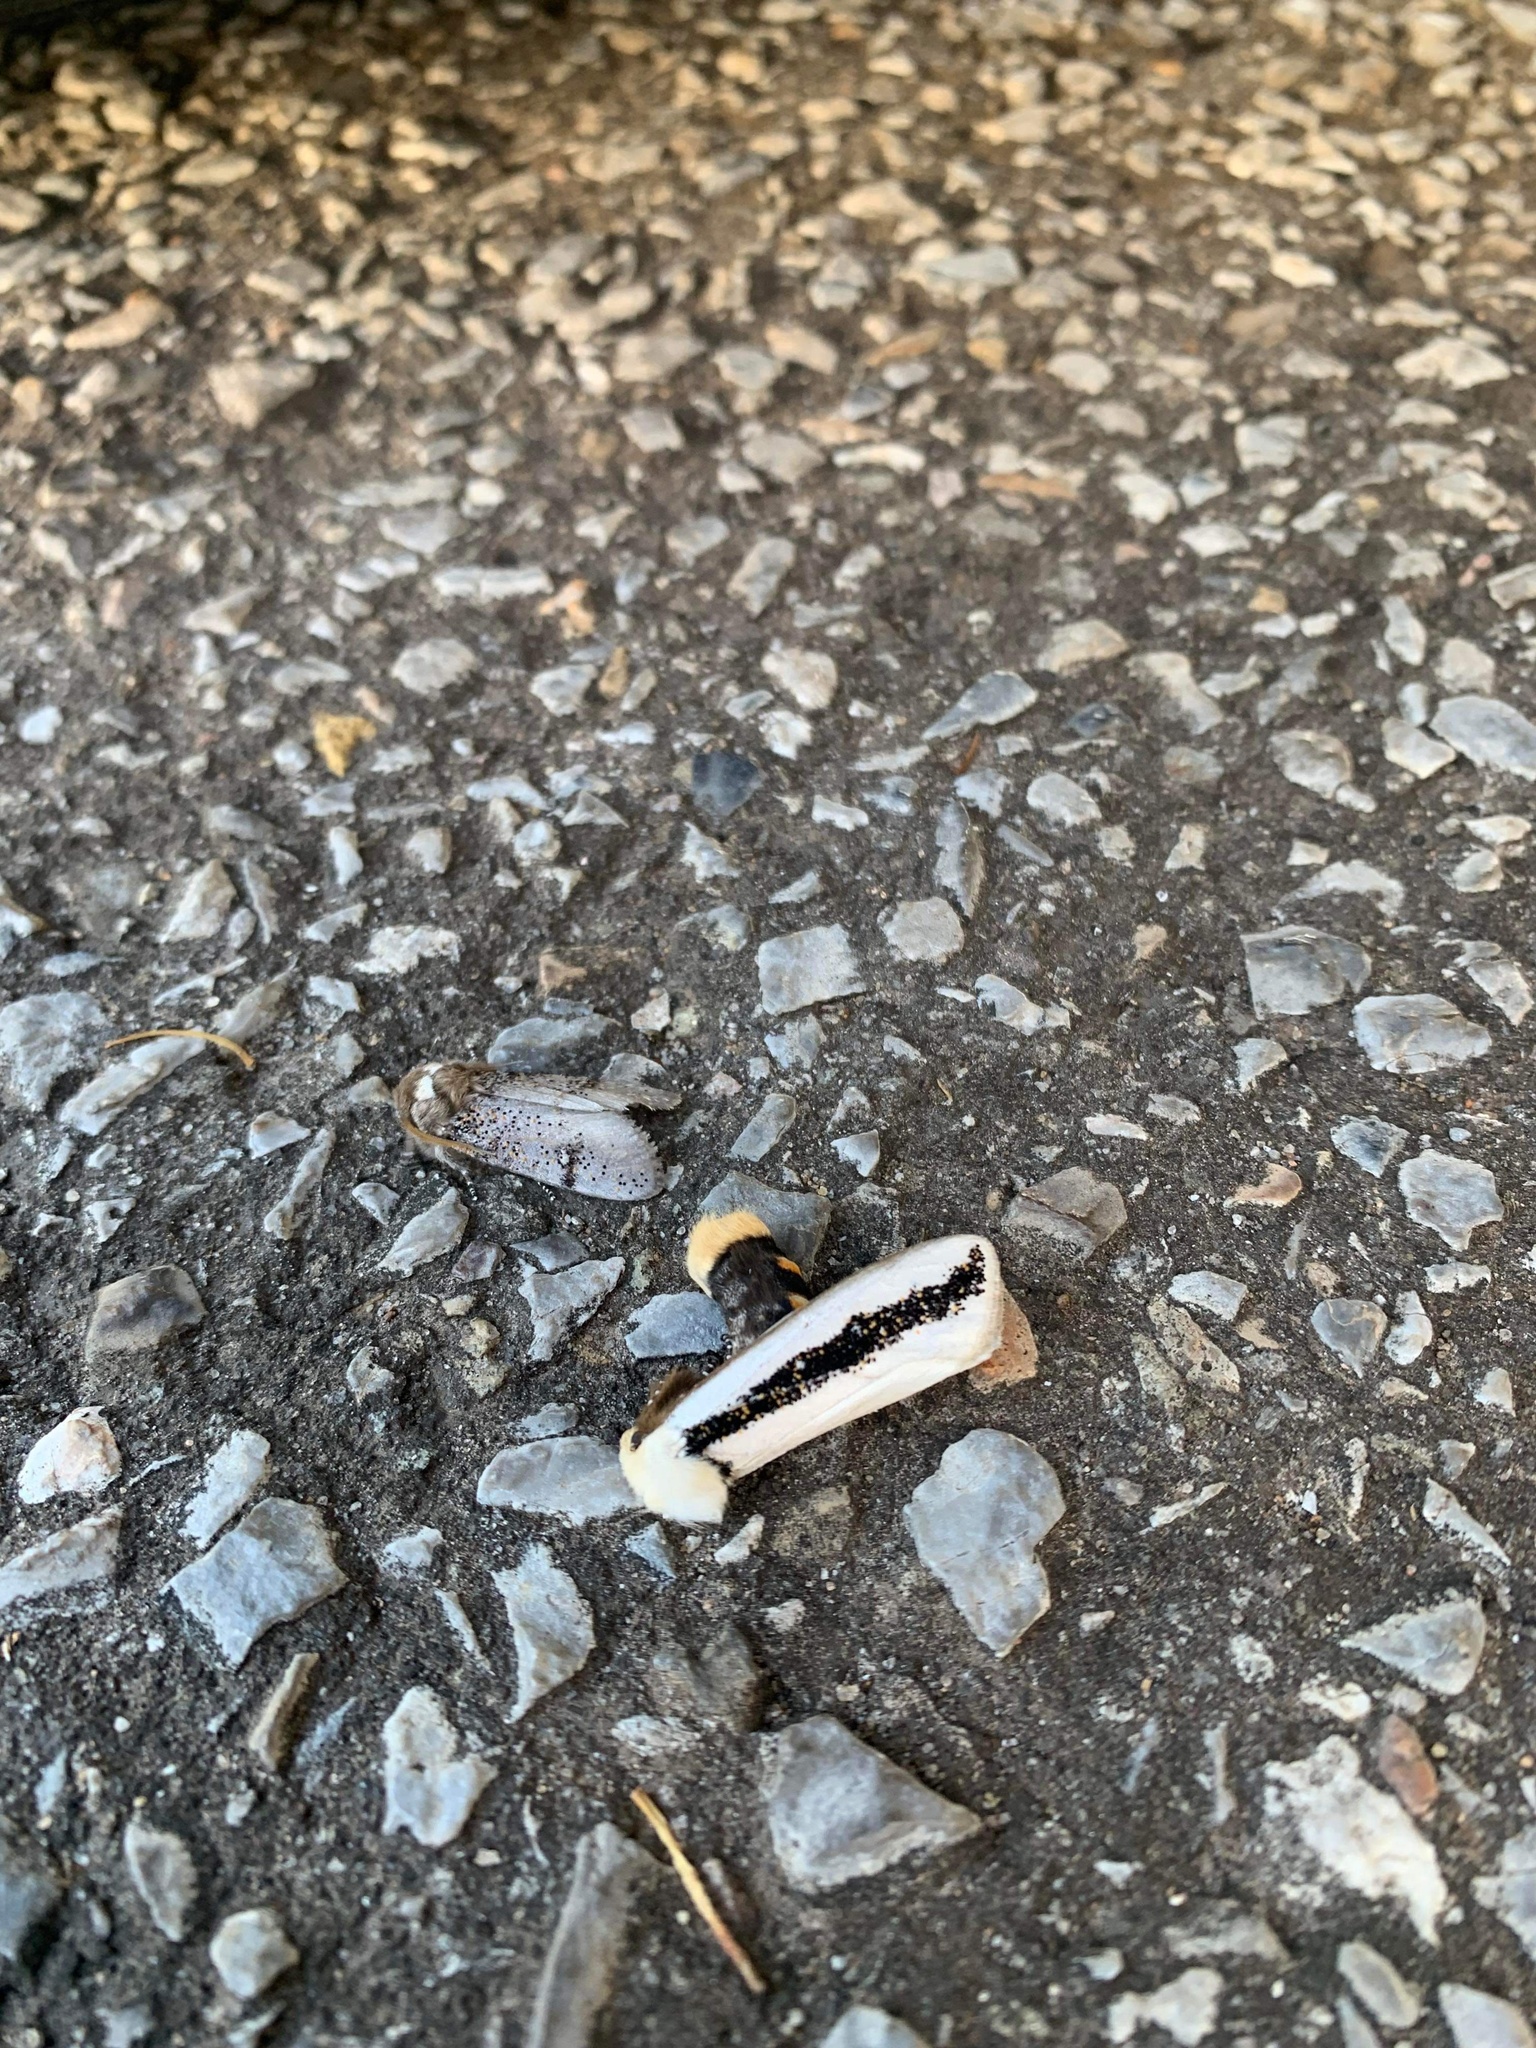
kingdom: Animalia
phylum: Arthropoda
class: Insecta
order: Lepidoptera
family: Oenosandridae
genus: Oenosandra
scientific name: Oenosandra boisduvalii
